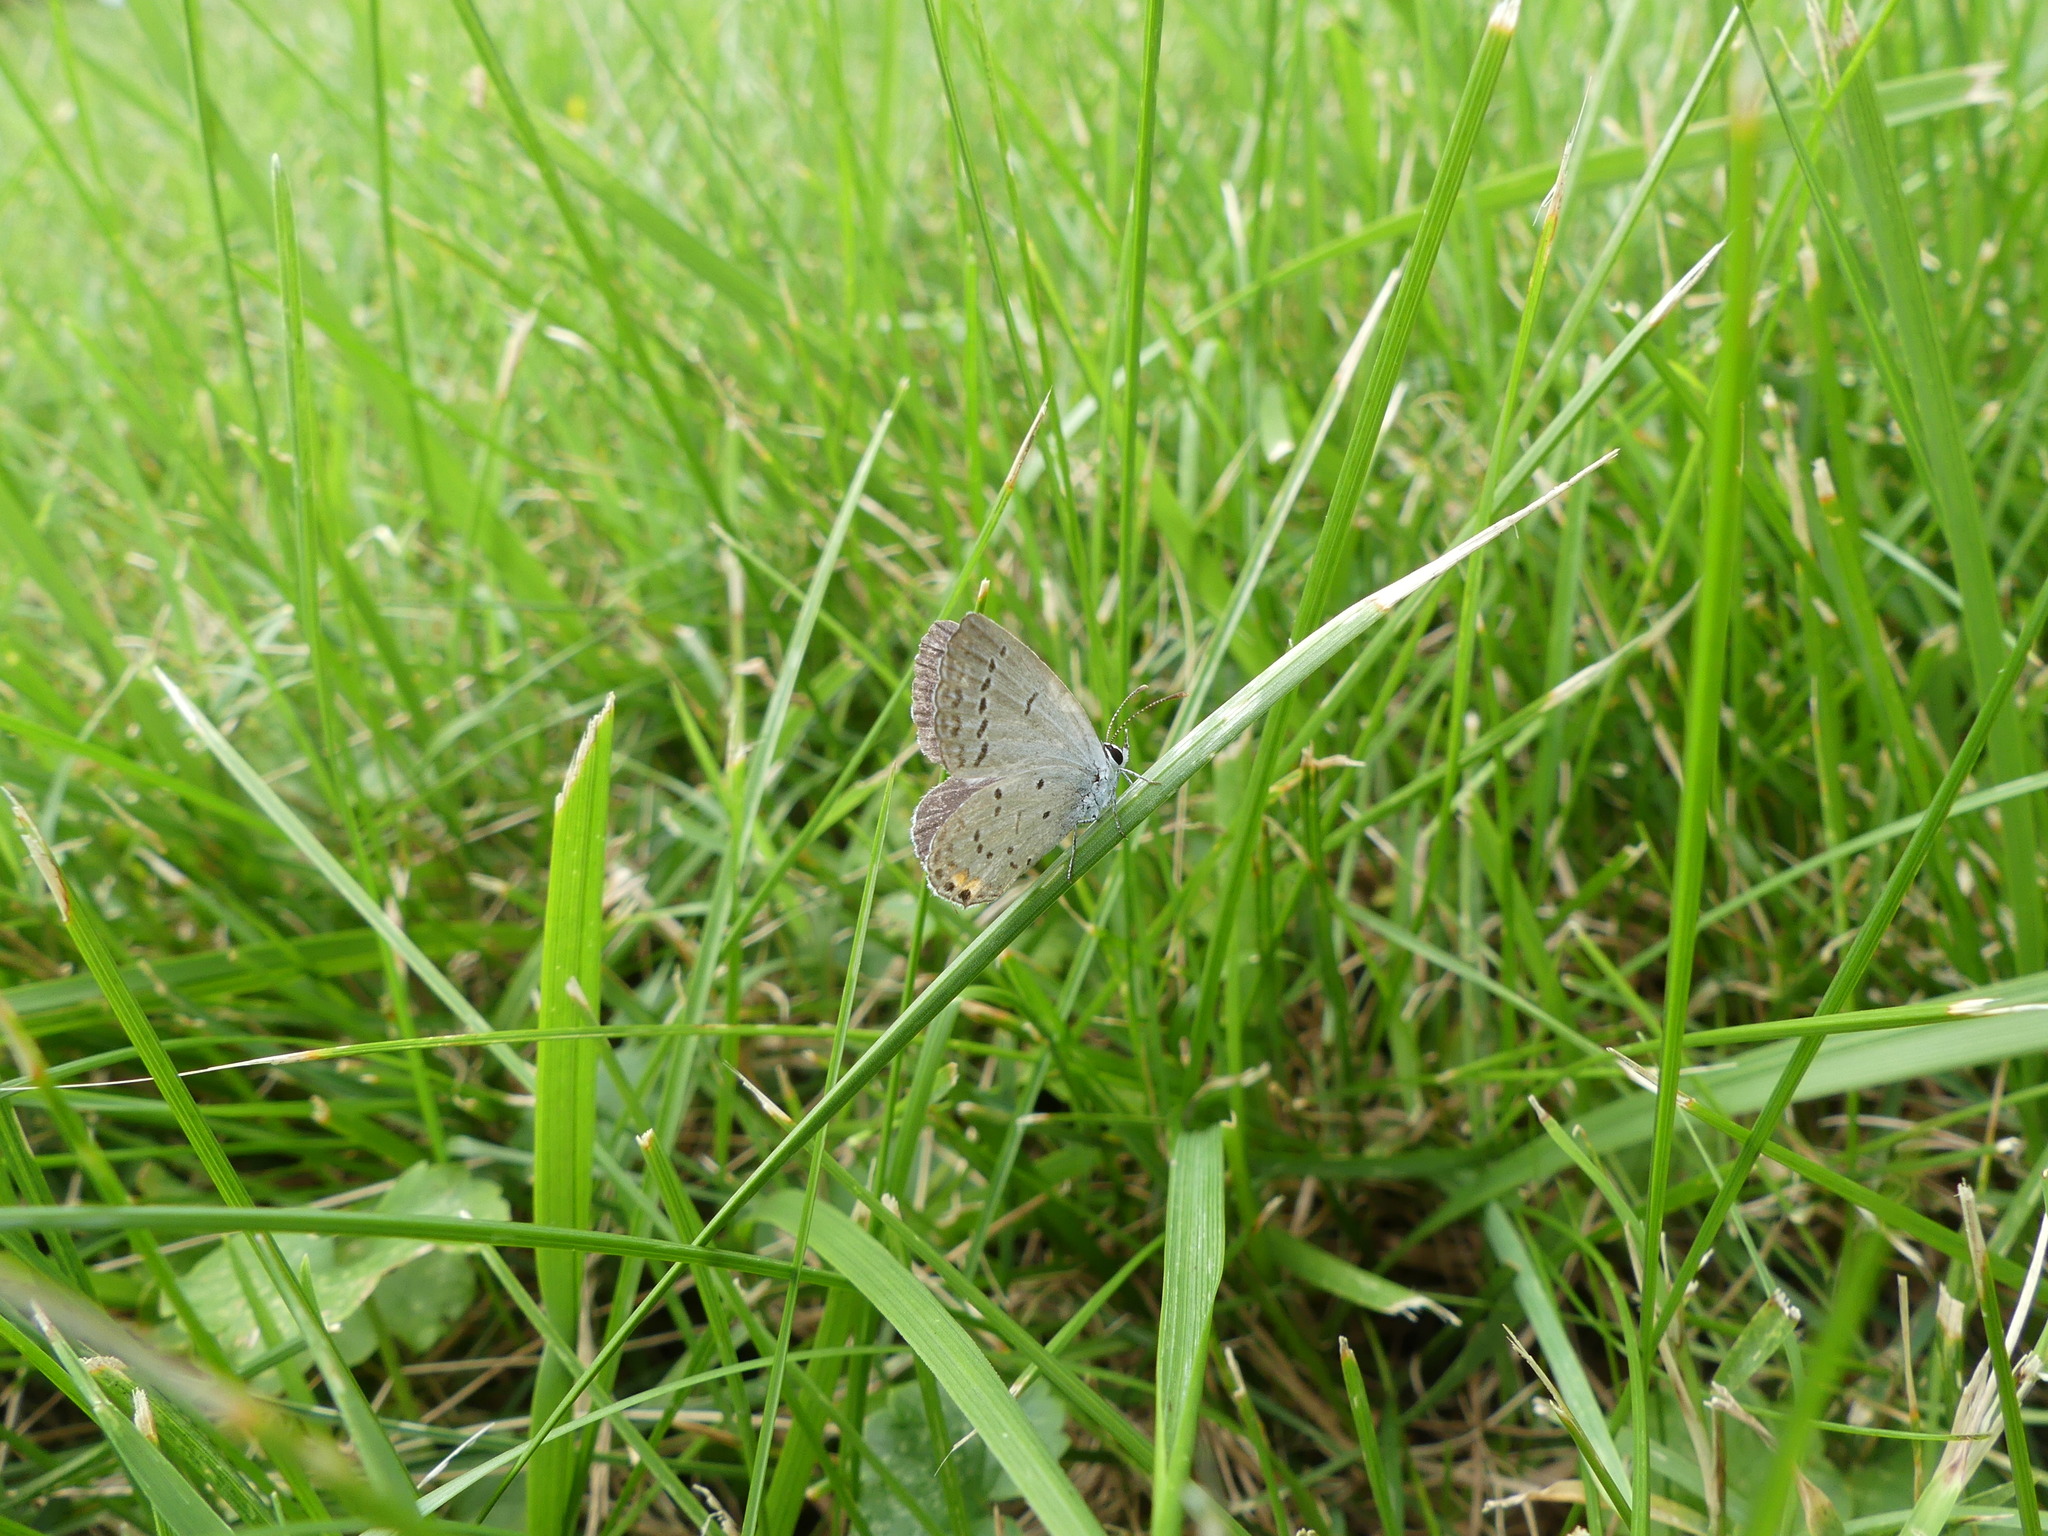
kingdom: Animalia
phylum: Arthropoda
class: Insecta
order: Lepidoptera
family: Lycaenidae
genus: Elkalyce
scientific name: Elkalyce comyntas
